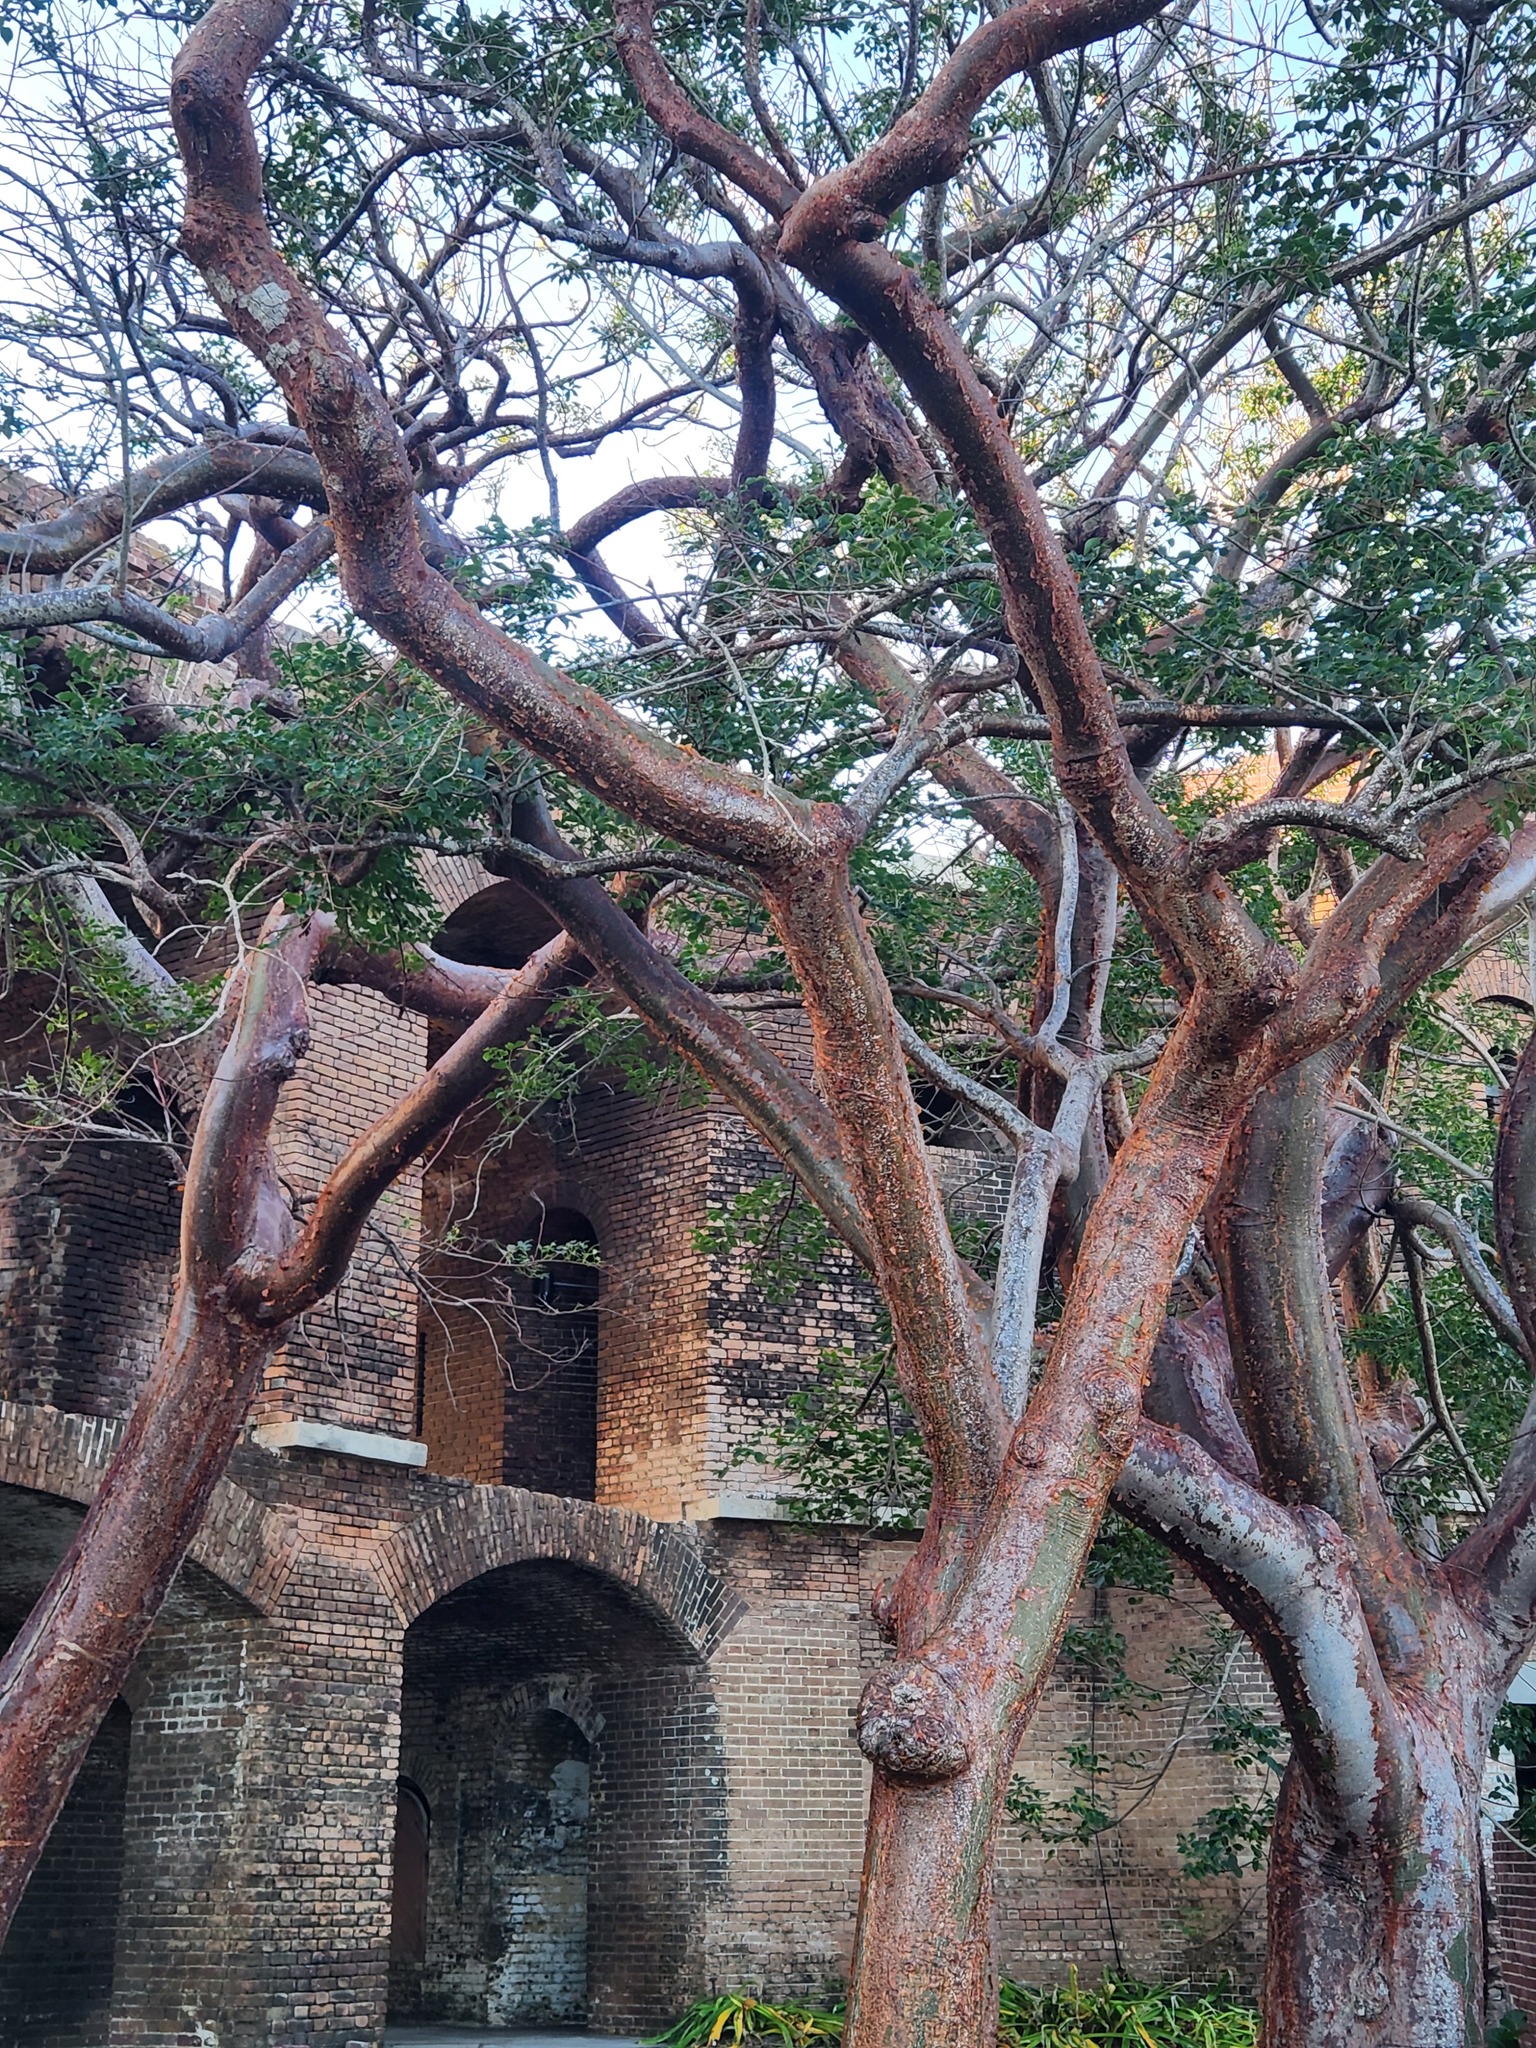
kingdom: Plantae
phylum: Tracheophyta
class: Magnoliopsida
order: Sapindales
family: Burseraceae
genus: Bursera
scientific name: Bursera simaruba
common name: Turpentine tree
